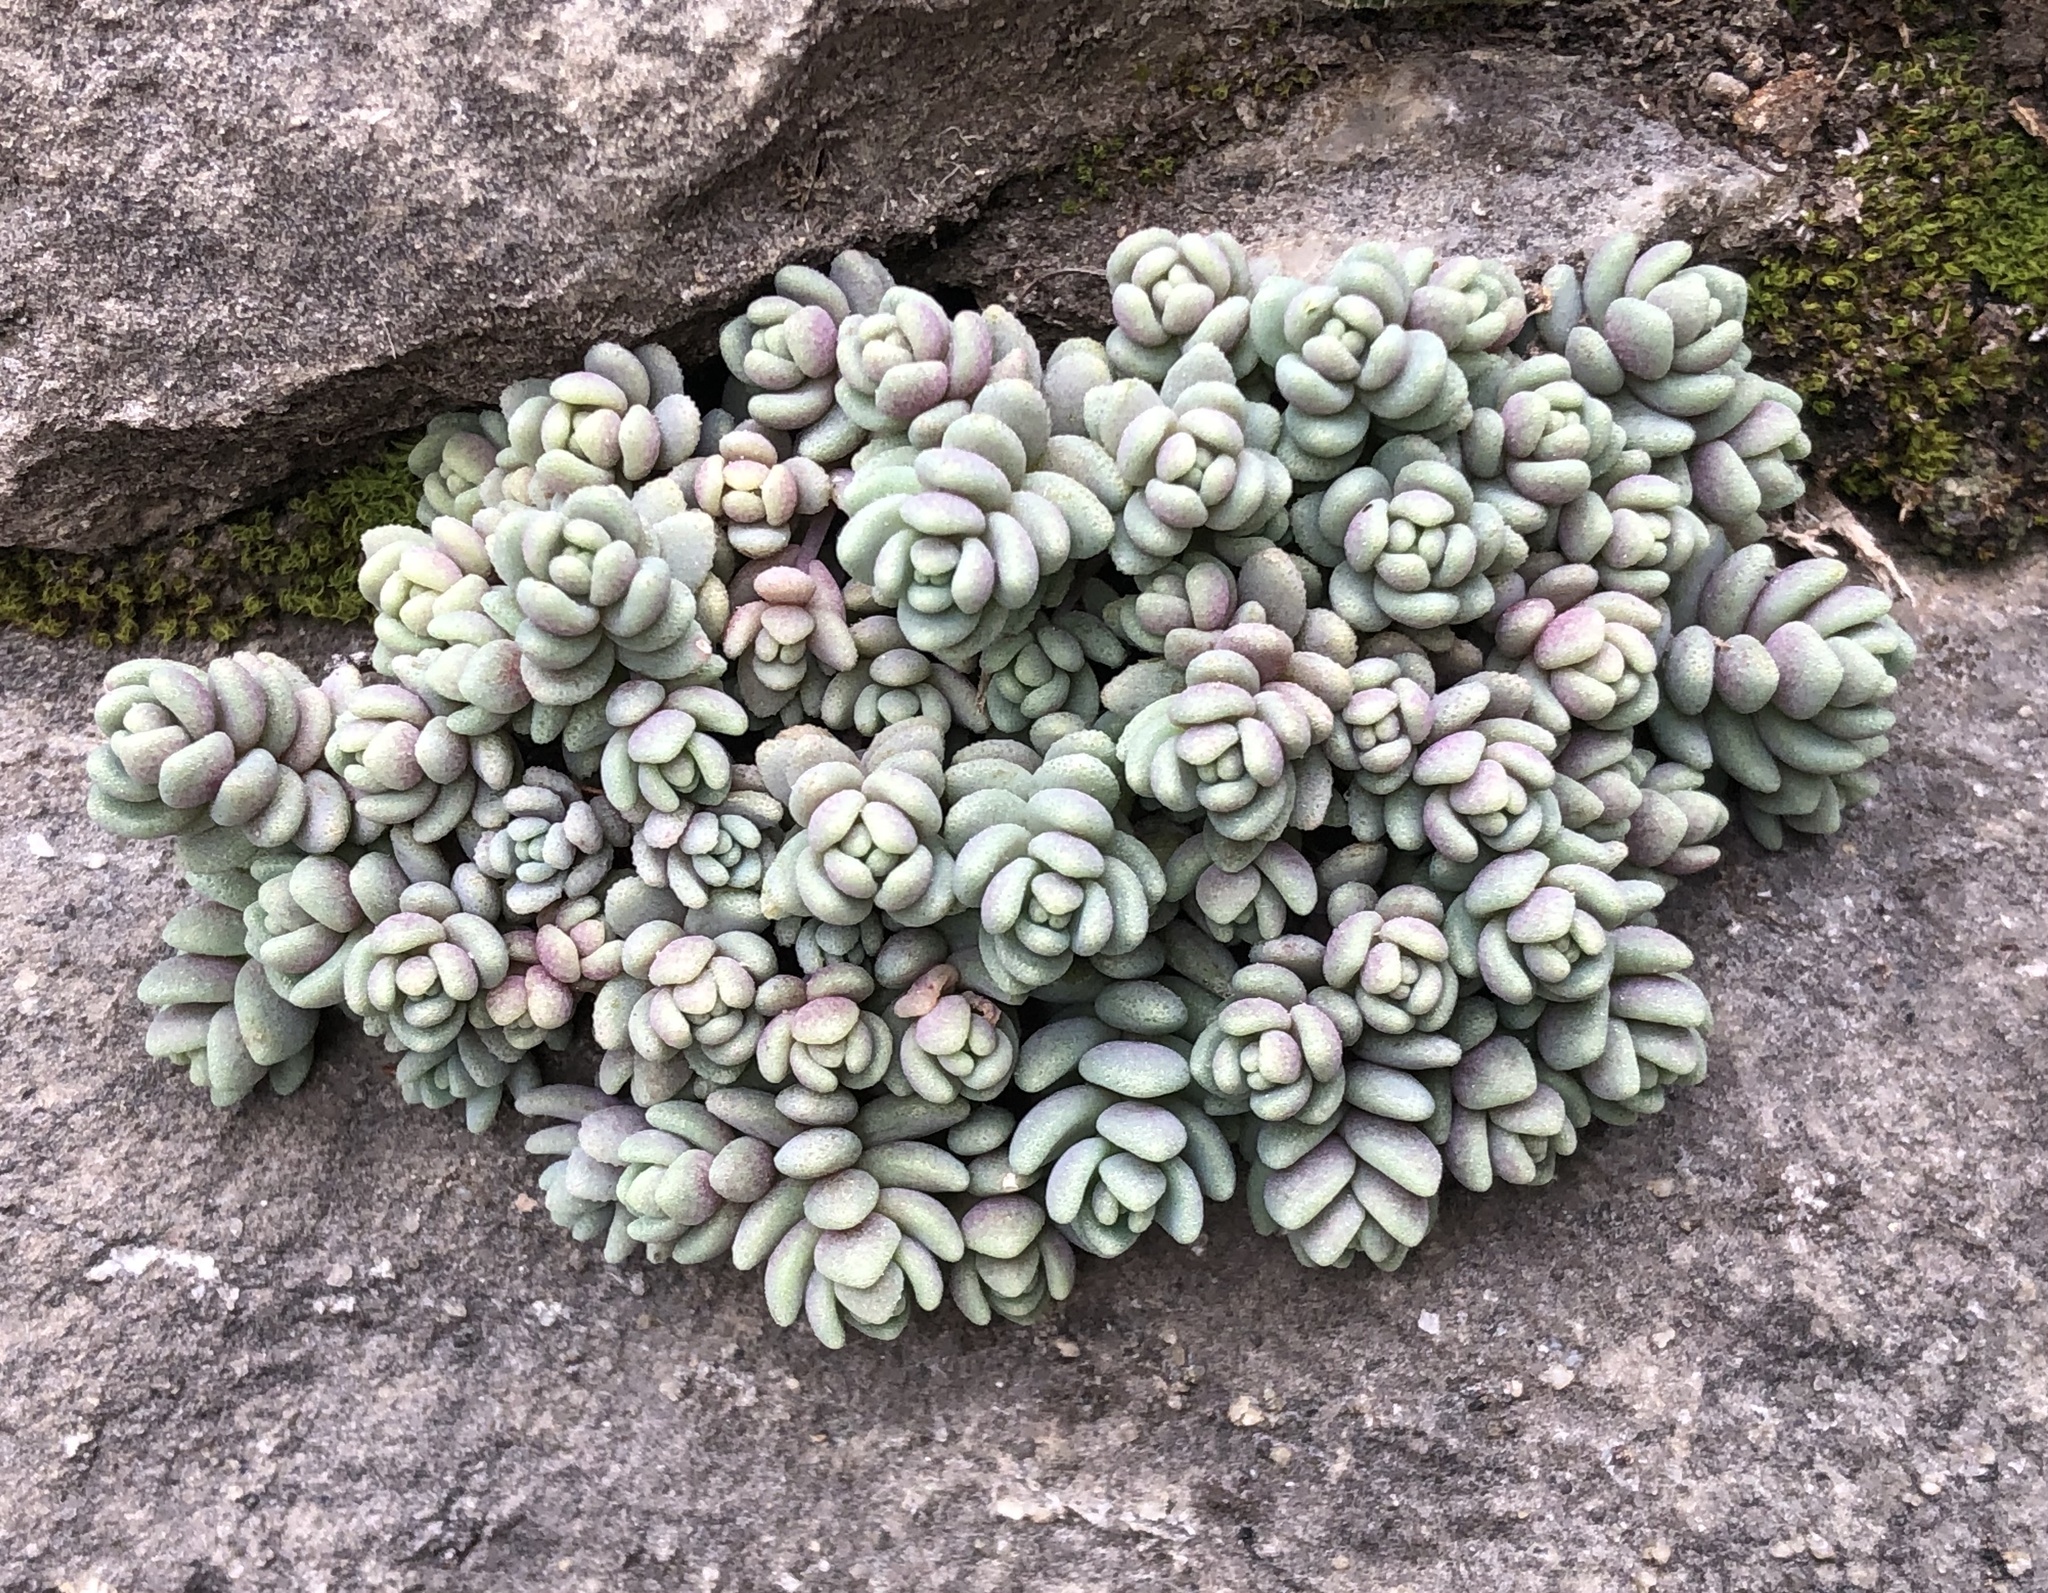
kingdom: Plantae
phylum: Tracheophyta
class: Magnoliopsida
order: Saxifragales
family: Crassulaceae
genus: Sedum
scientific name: Sedum dasyphyllum
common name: Thick-leaf stonecrop
